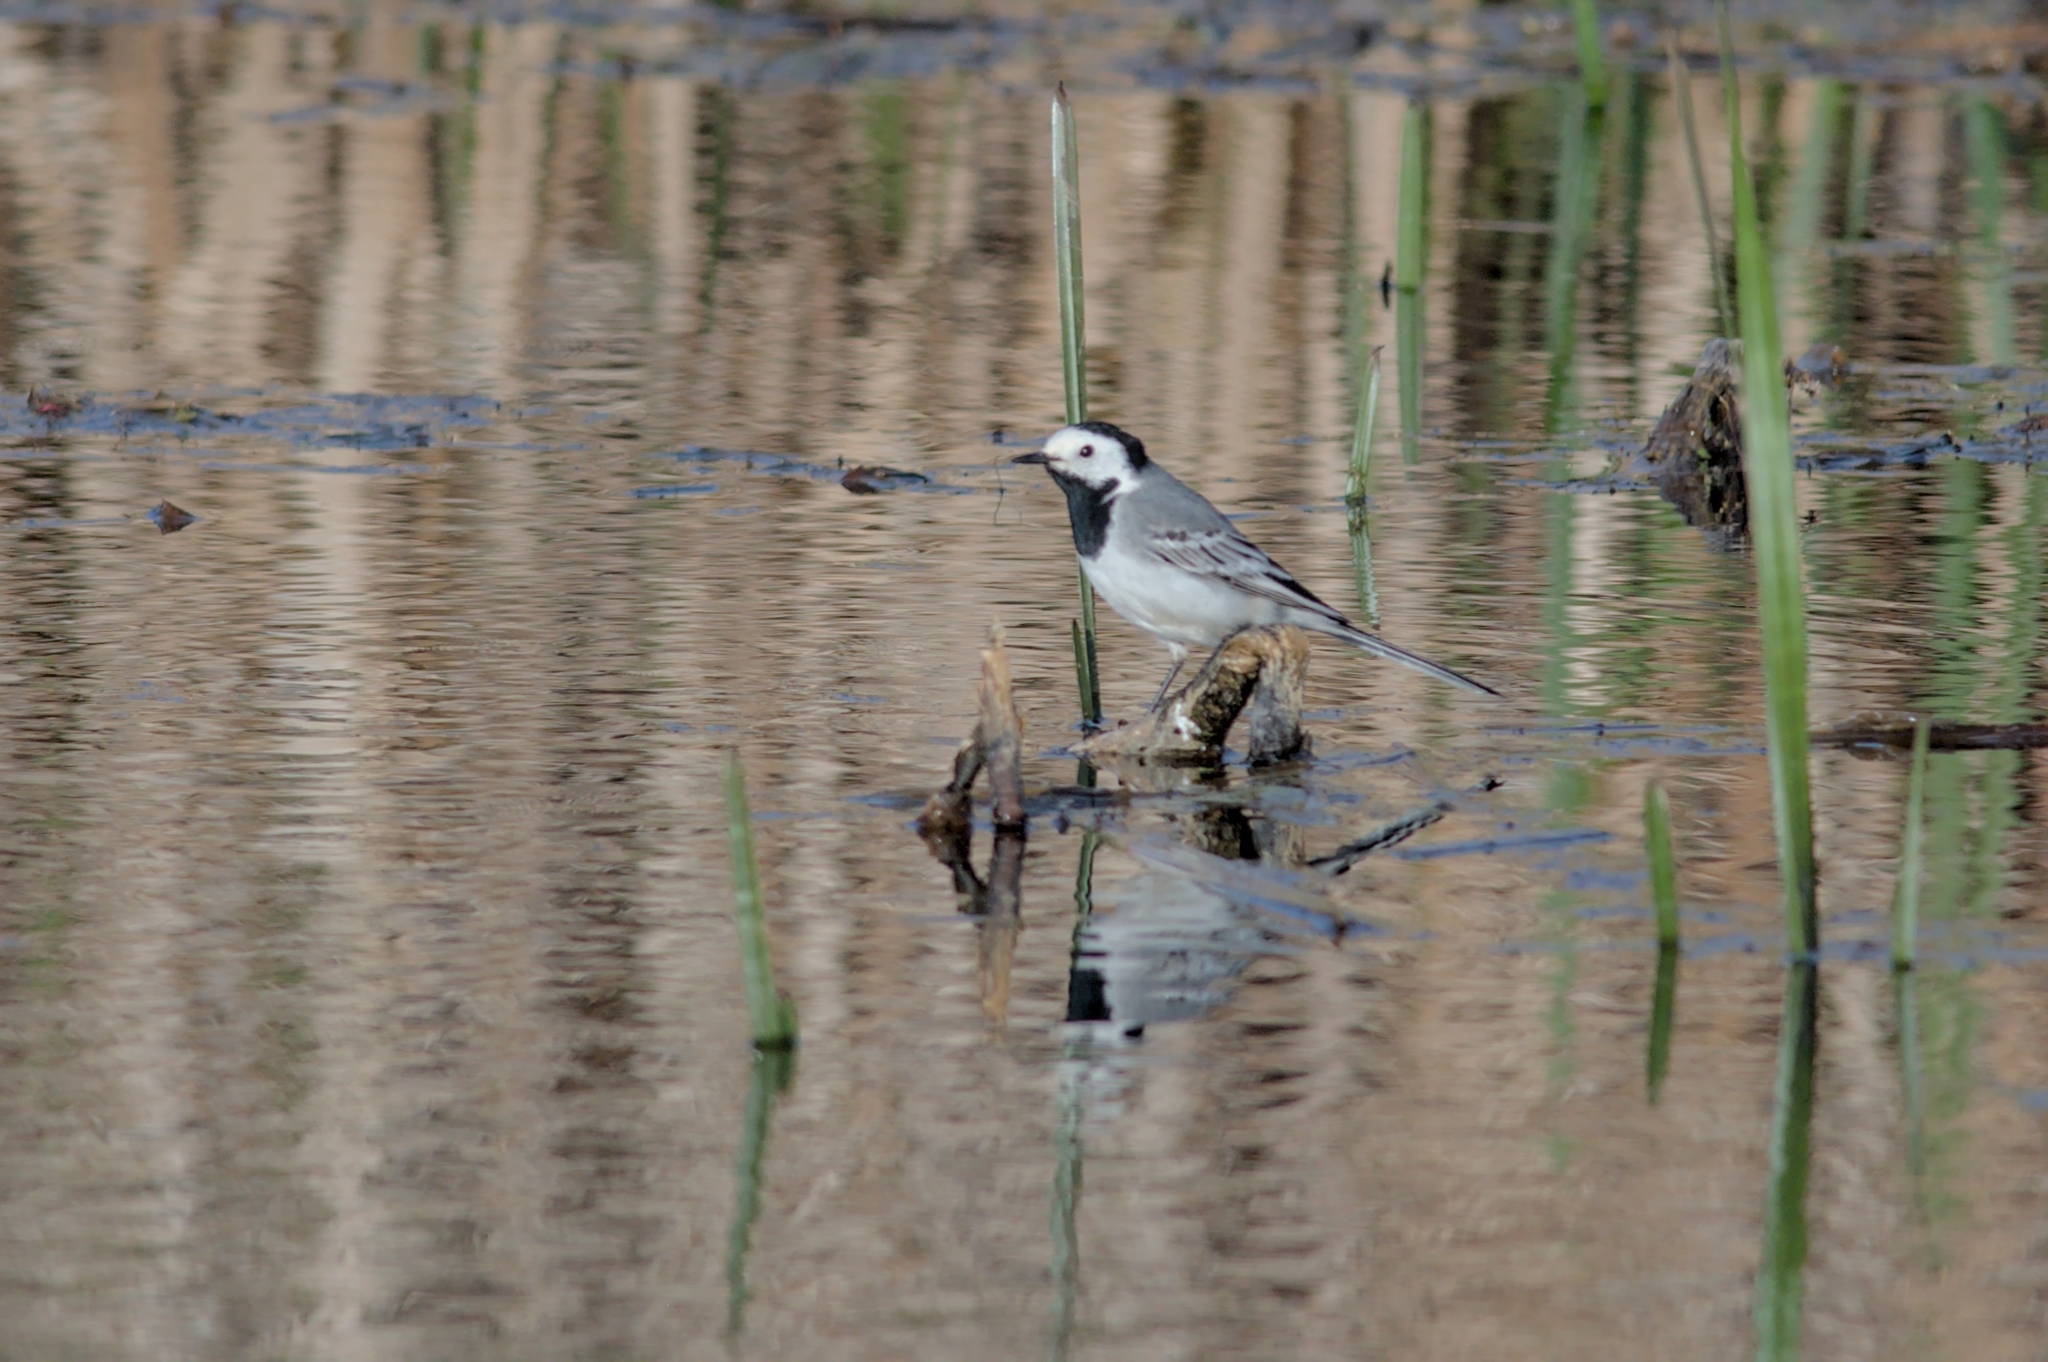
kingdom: Animalia
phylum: Chordata
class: Aves
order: Passeriformes
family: Motacillidae
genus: Motacilla
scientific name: Motacilla alba
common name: White wagtail
